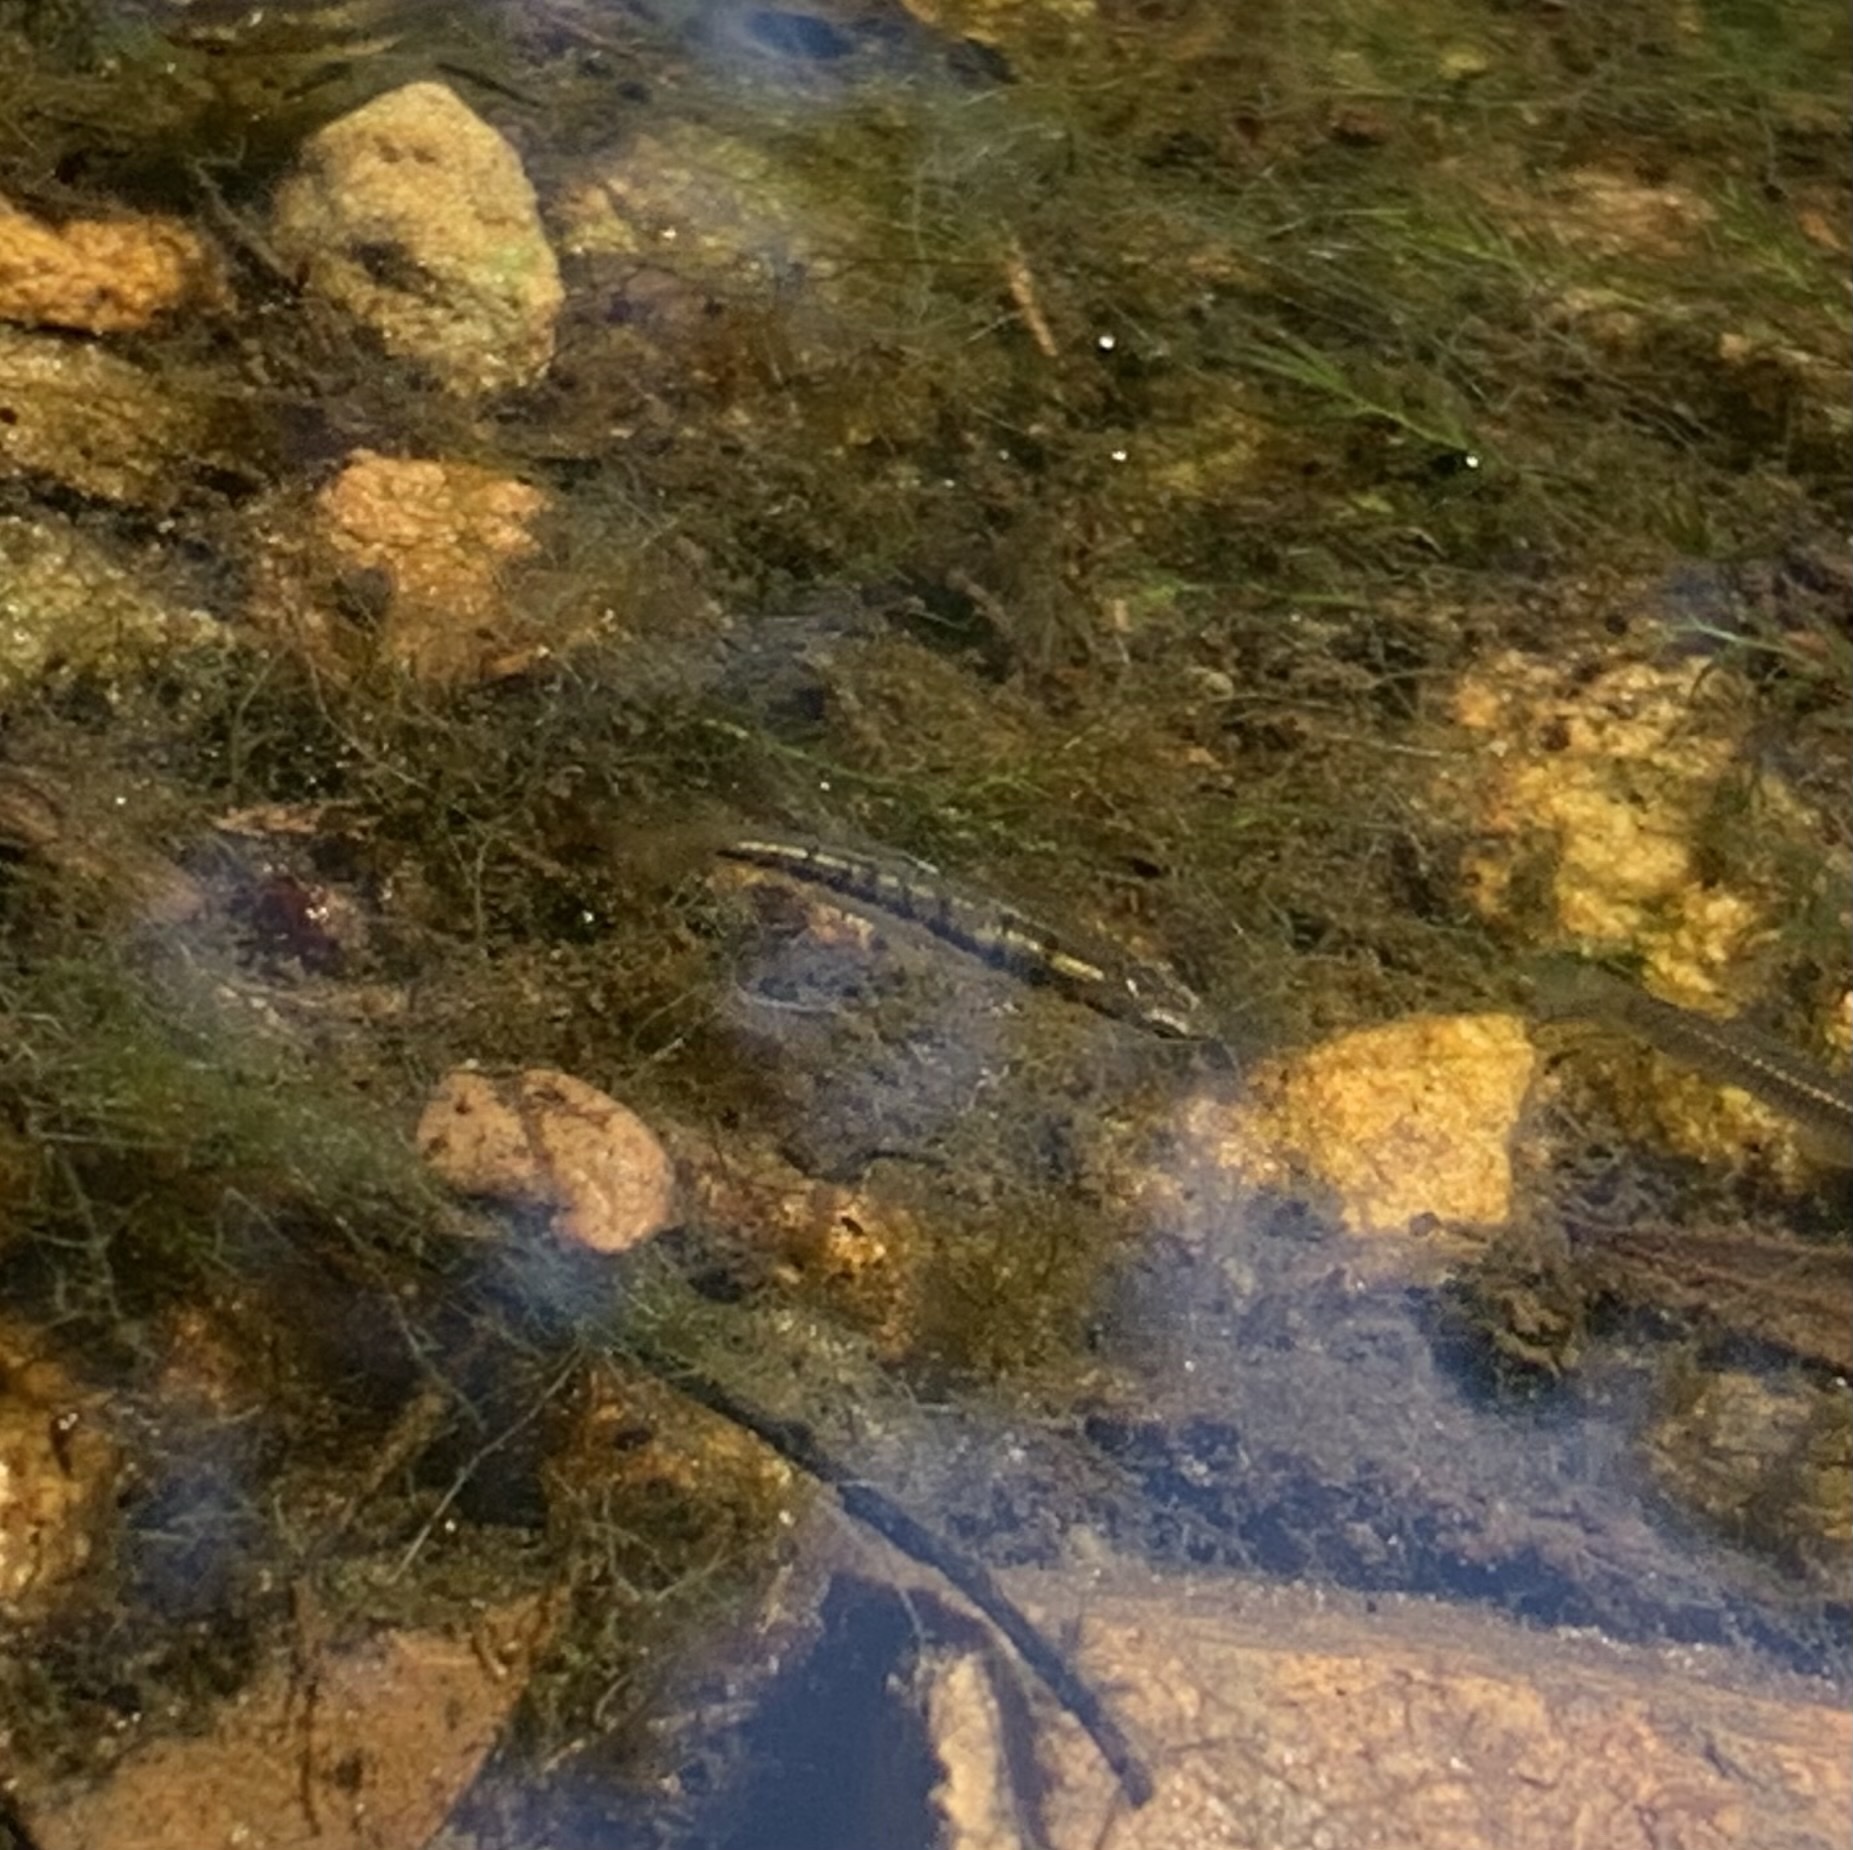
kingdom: Animalia
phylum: Chordata
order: Cyprinodontiformes
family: Poeciliidae
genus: Heterandria
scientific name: Heterandria formosa
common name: Least killifish
